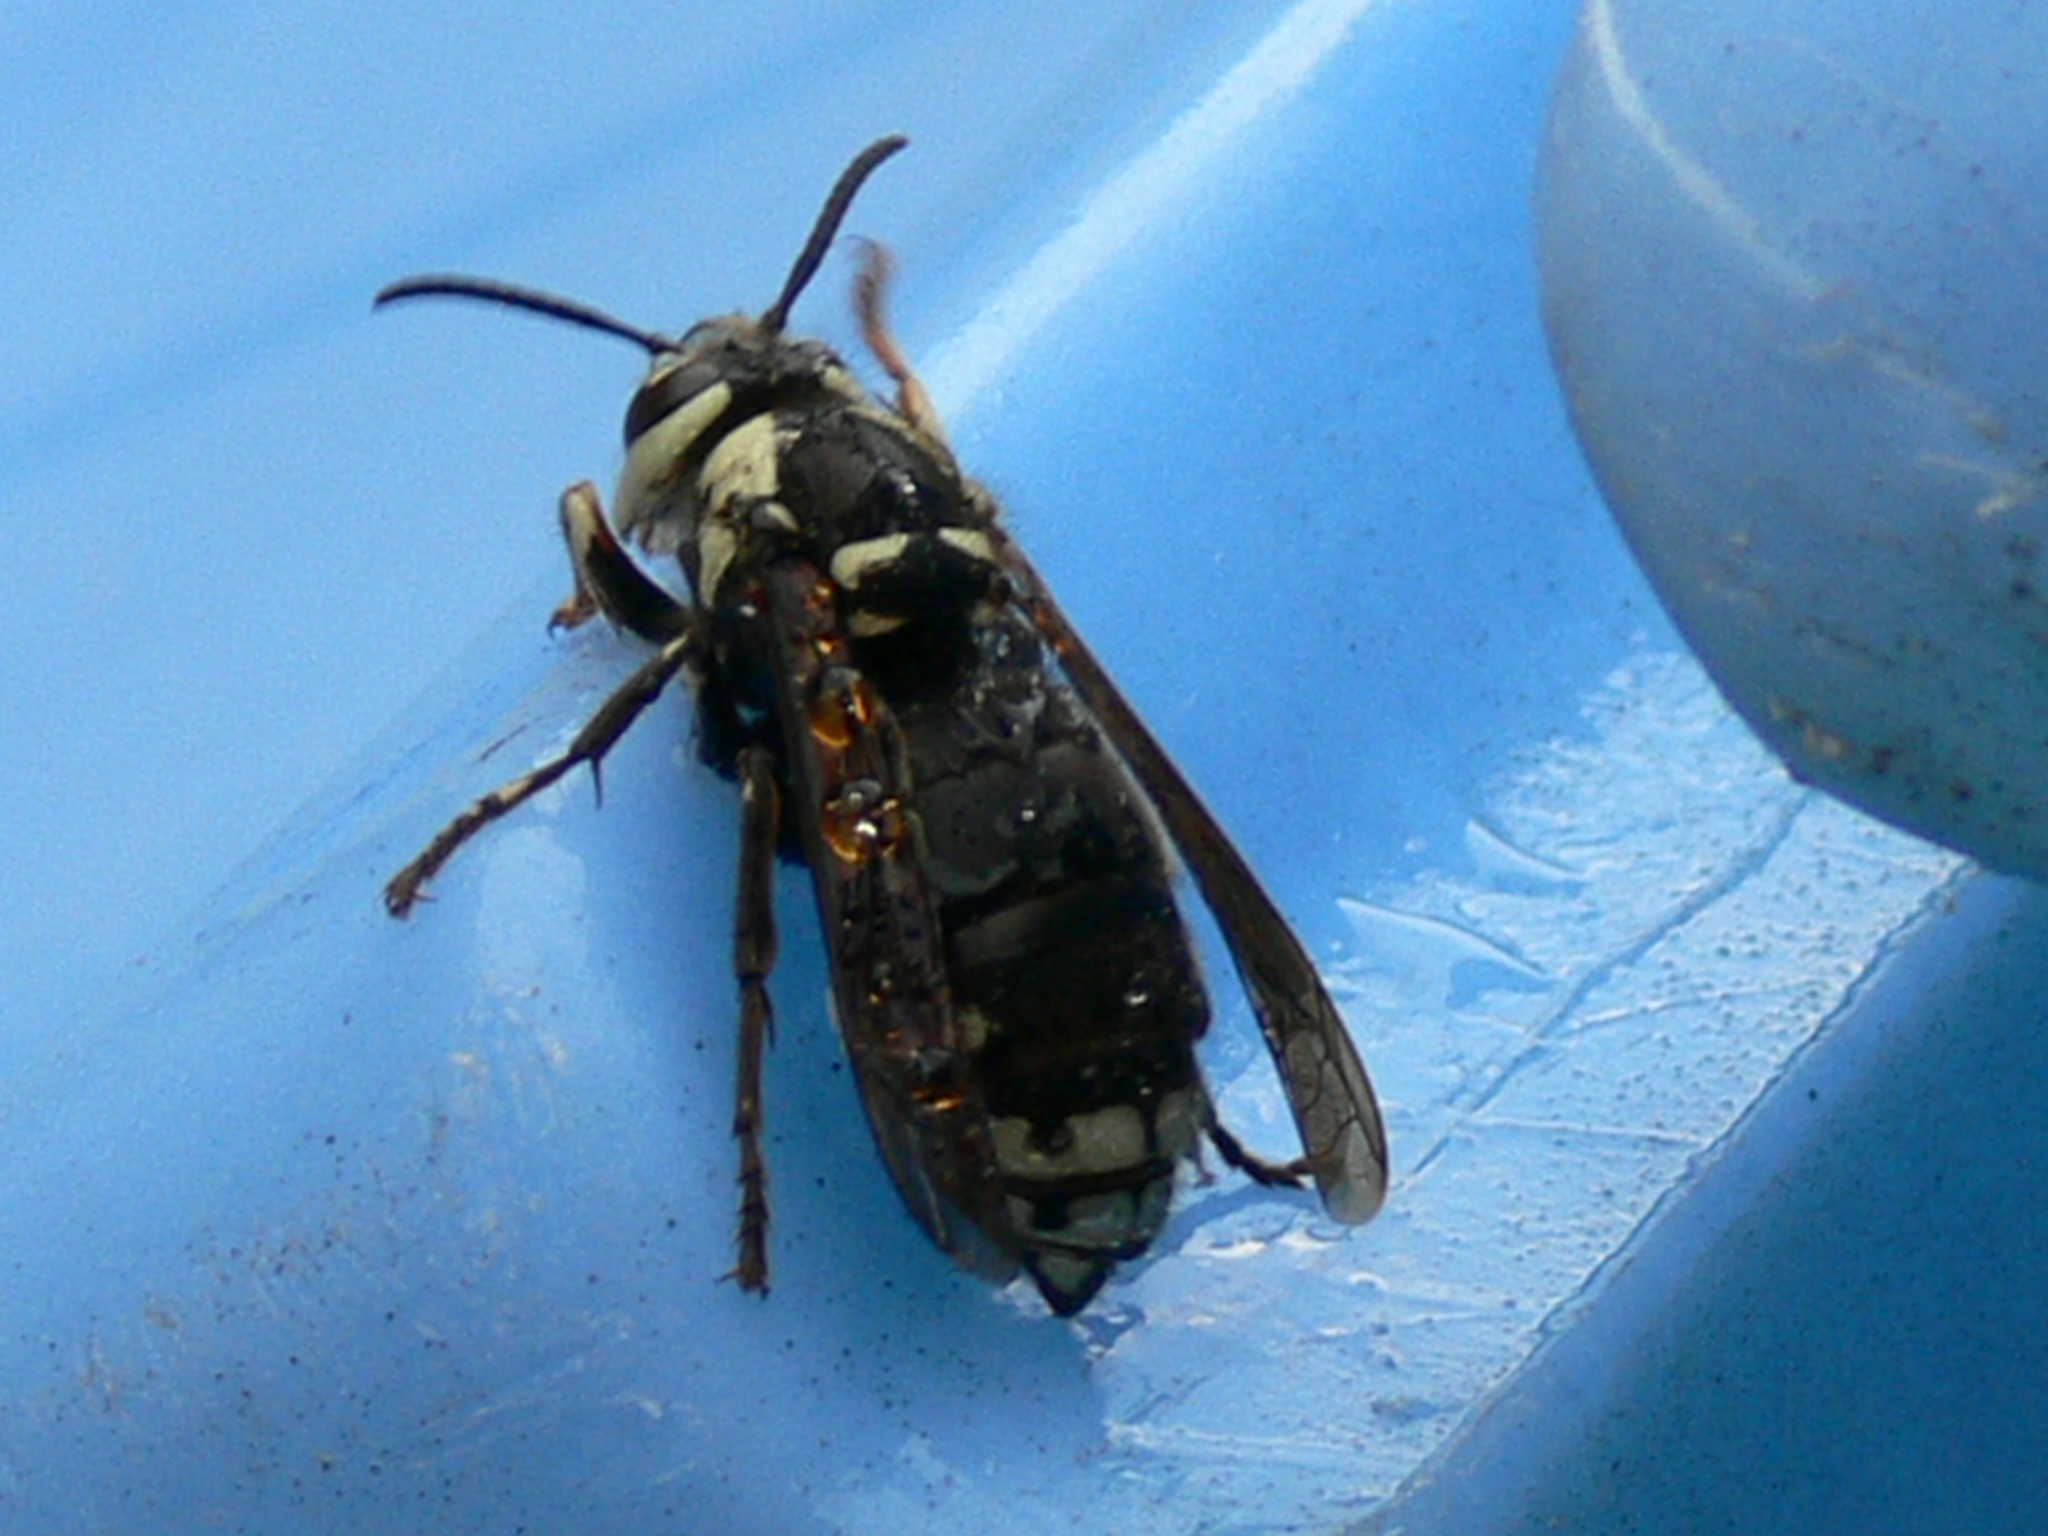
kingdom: Animalia
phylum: Arthropoda
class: Insecta
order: Hymenoptera
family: Vespidae
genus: Dolichovespula
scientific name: Dolichovespula maculata
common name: Bald-faced hornet
